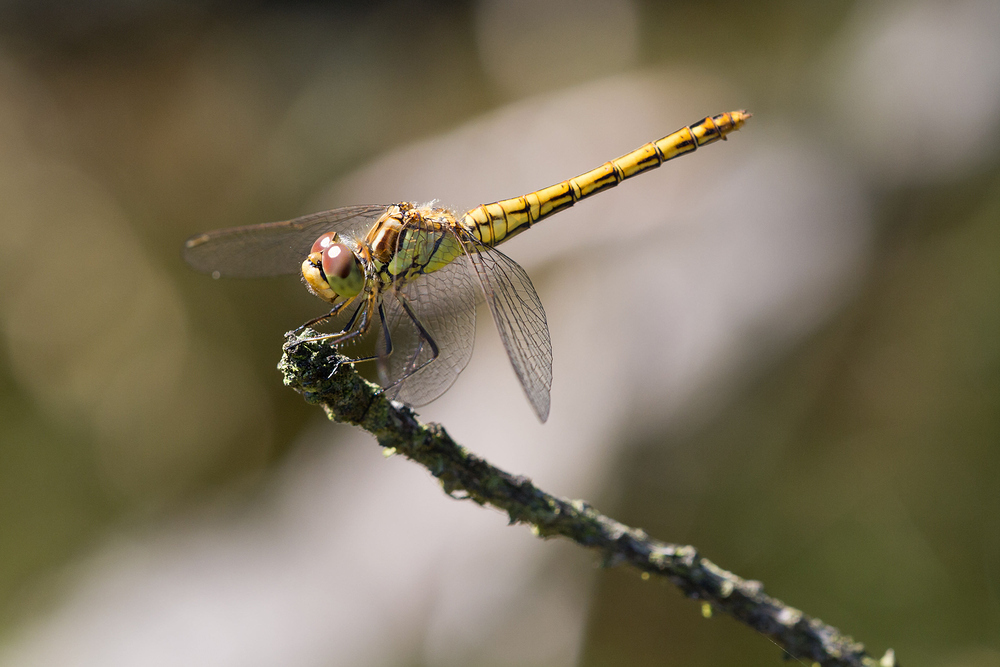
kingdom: Animalia
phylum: Arthropoda
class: Insecta
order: Odonata
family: Libellulidae
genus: Sympetrum
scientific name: Sympetrum vulgatum
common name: Vagrant darter
